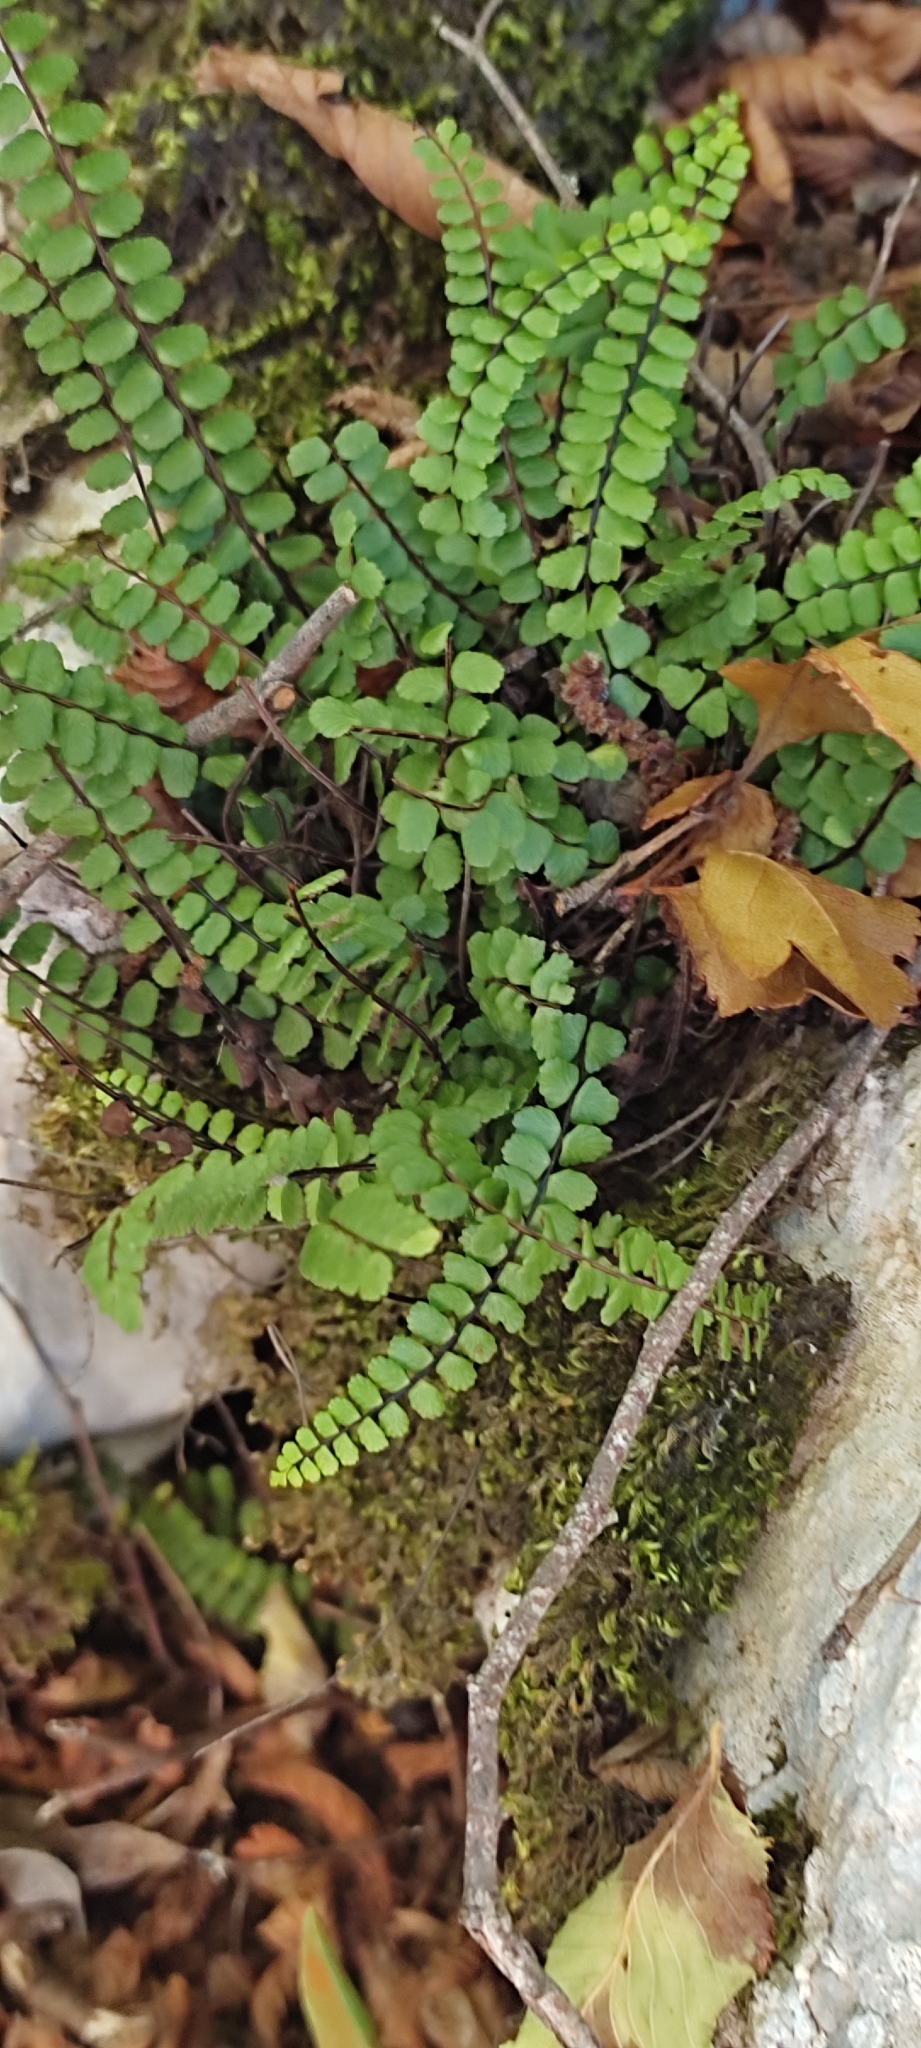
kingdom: Plantae
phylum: Tracheophyta
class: Polypodiopsida
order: Polypodiales
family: Aspleniaceae
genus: Asplenium
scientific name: Asplenium trichomanes
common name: Maidenhair spleenwort
